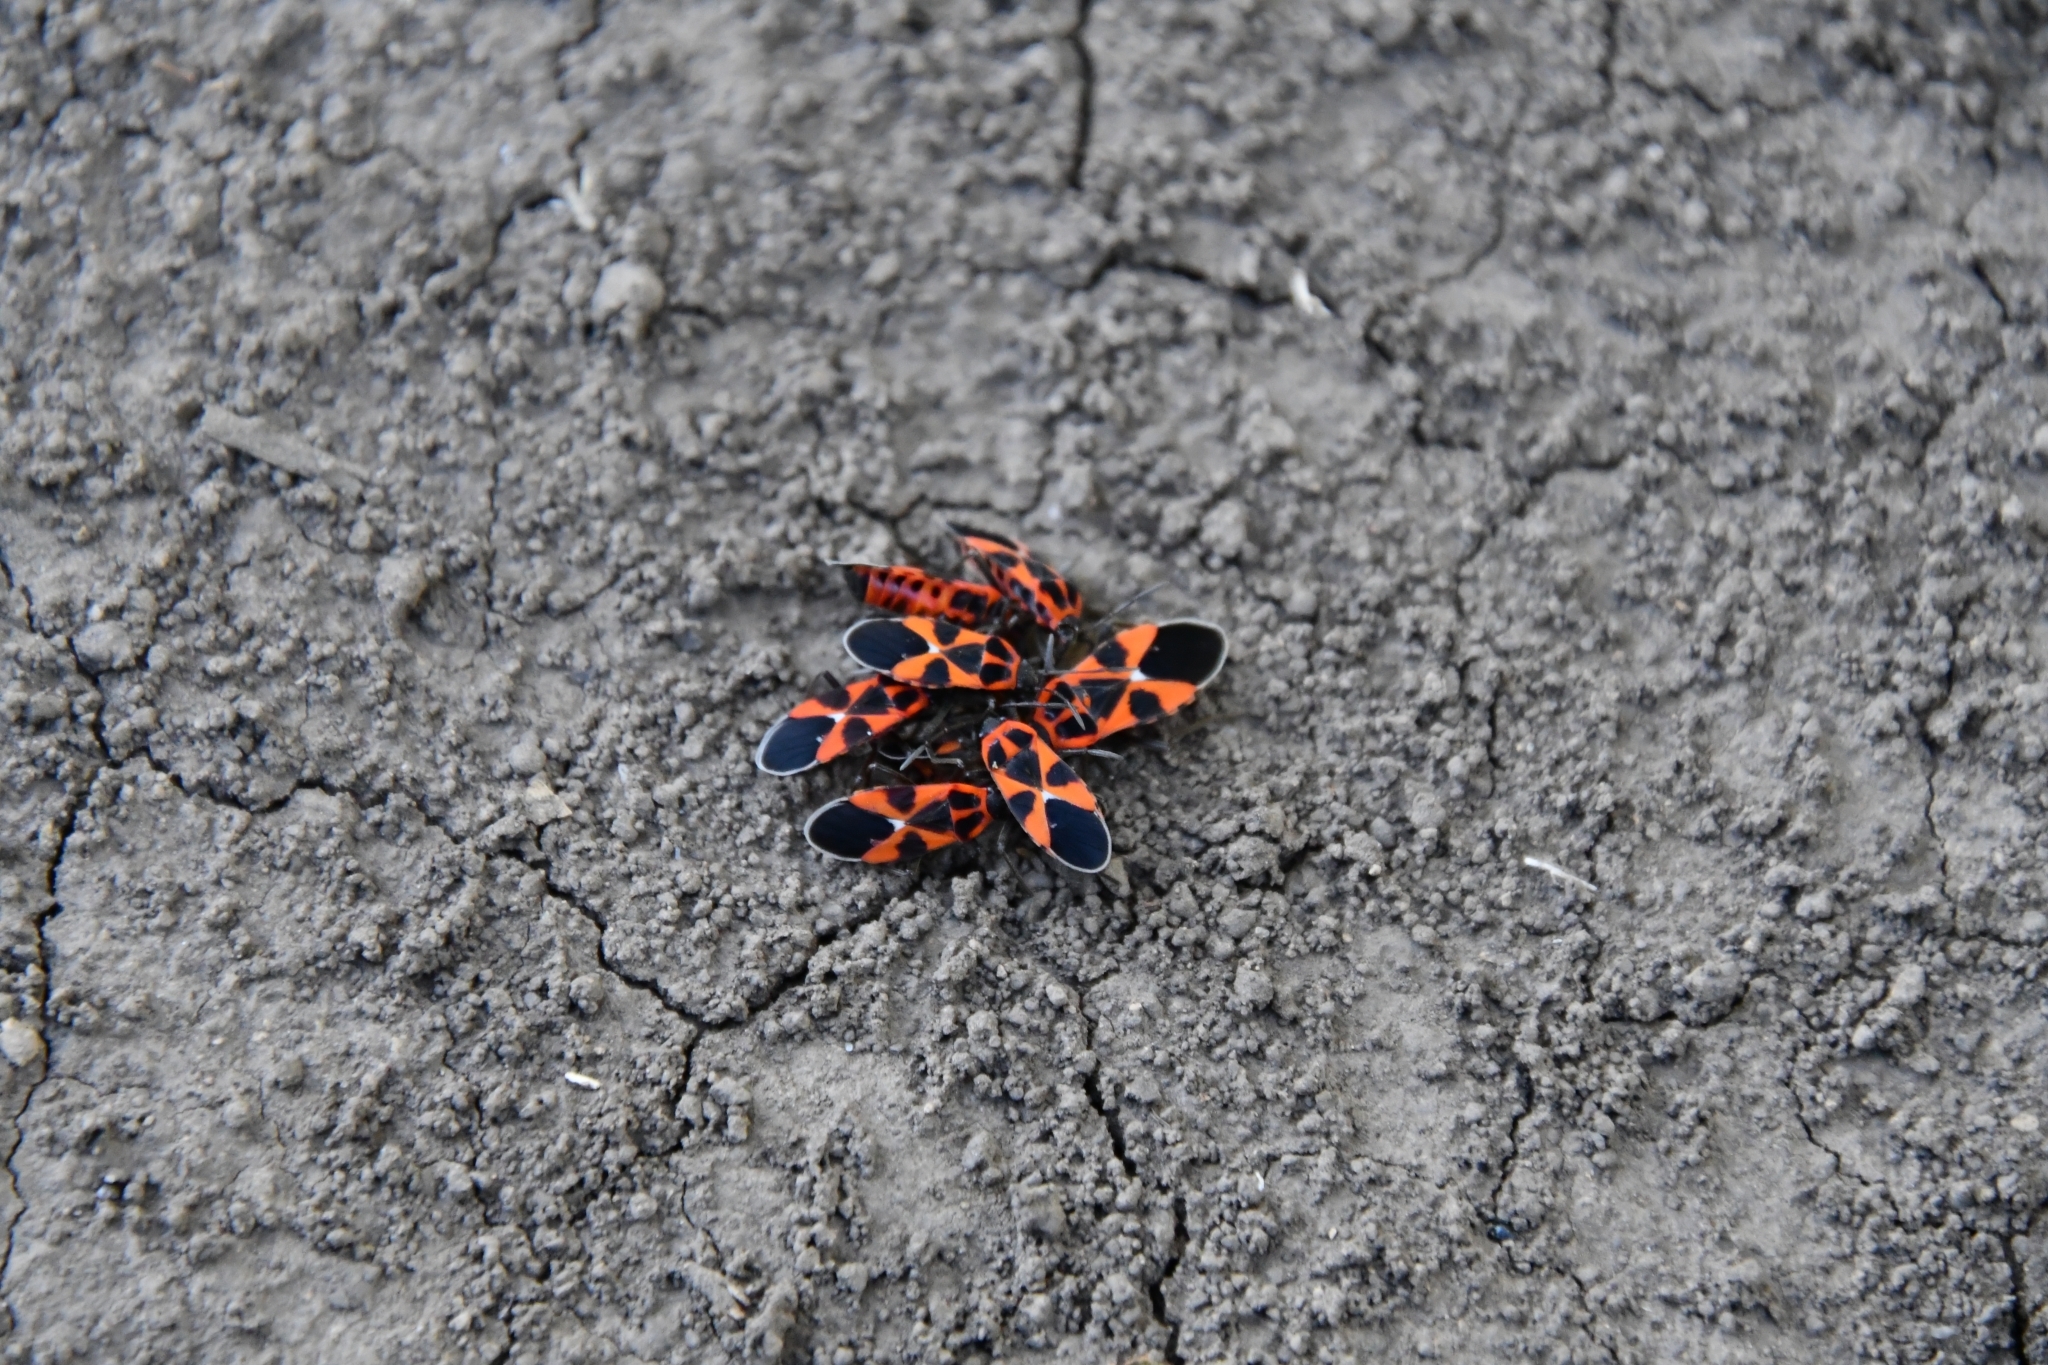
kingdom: Animalia
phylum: Arthropoda
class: Insecta
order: Hemiptera
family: Lygaeidae
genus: Tropidothorax
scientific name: Tropidothorax leucopterus
